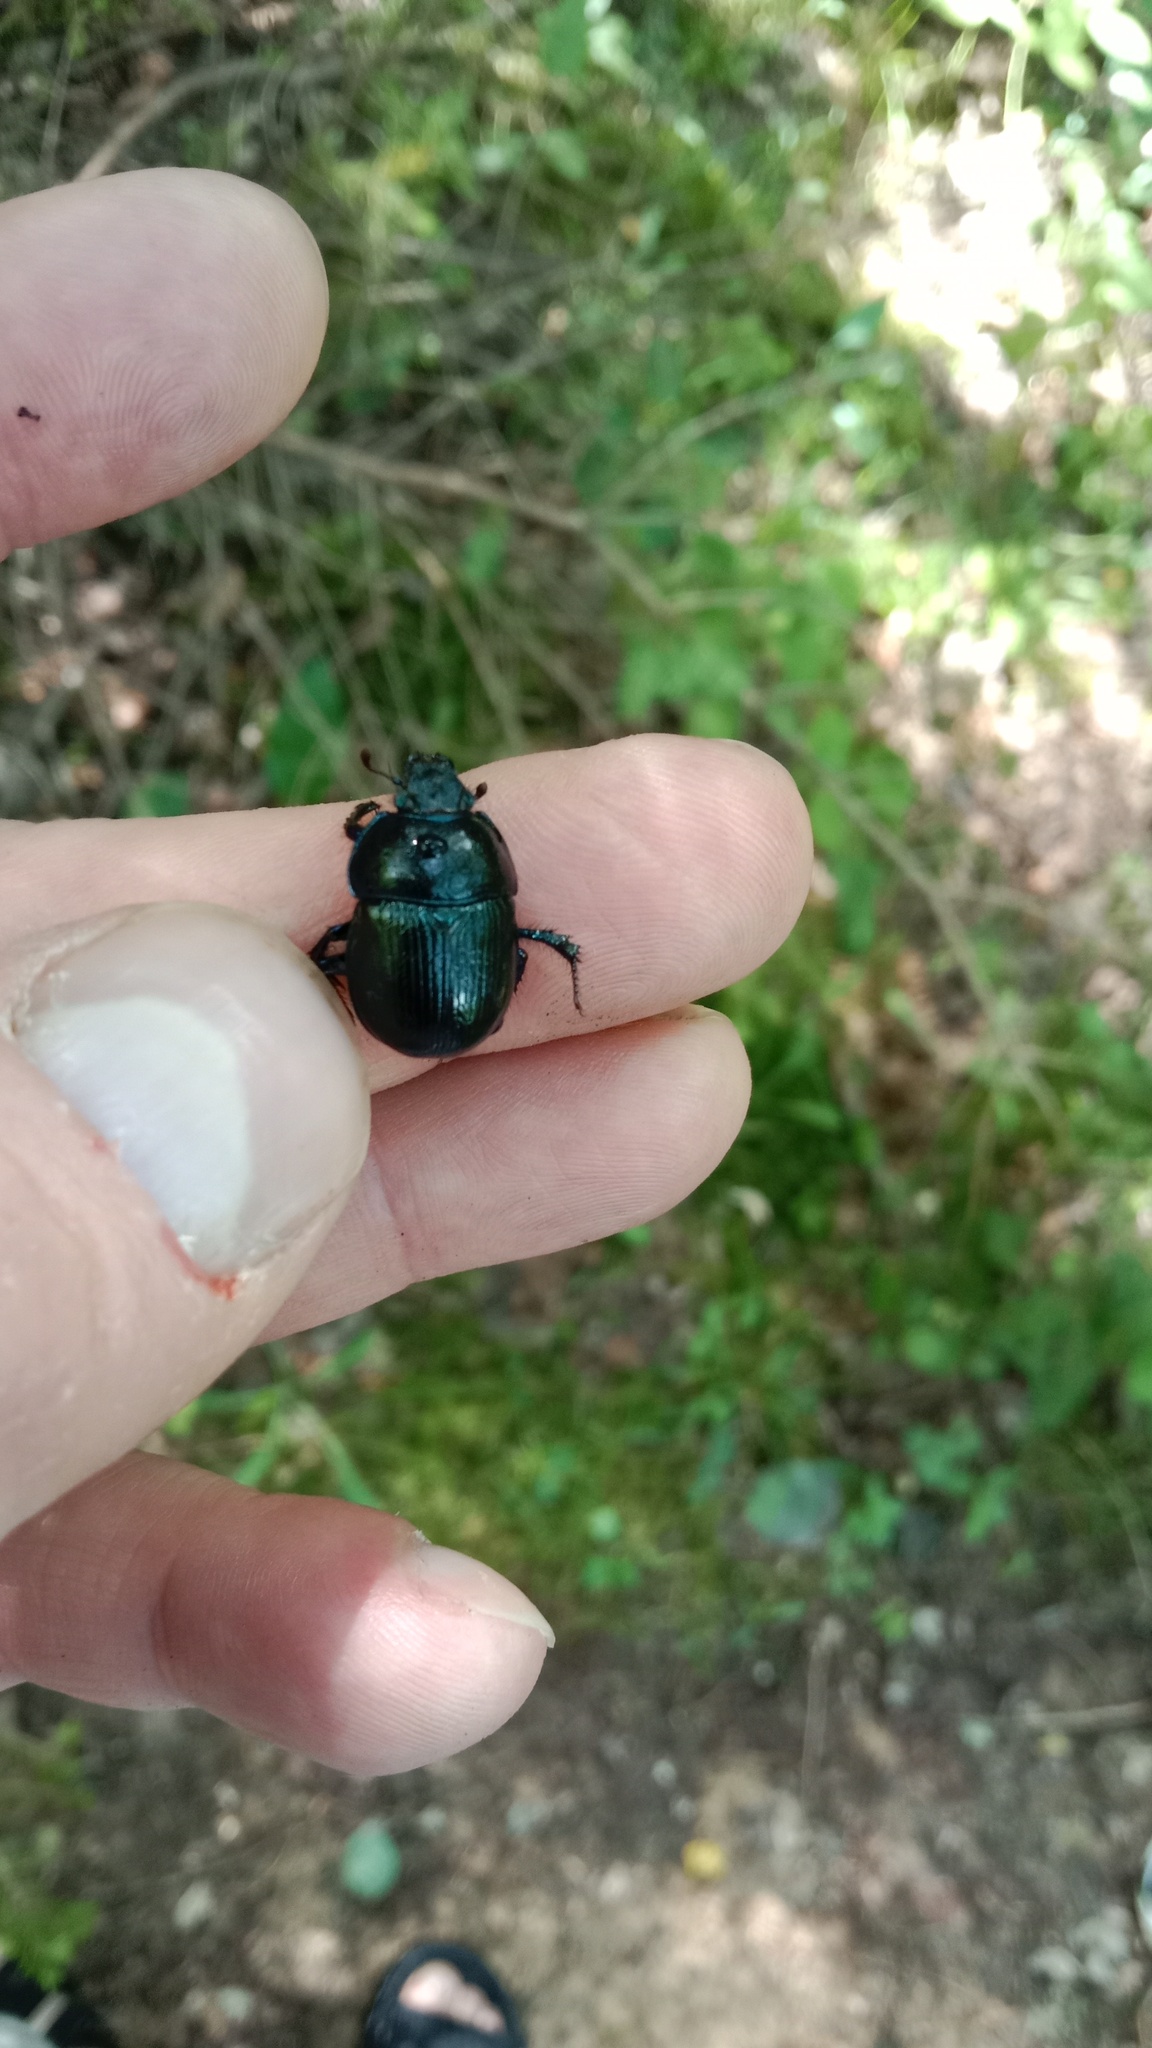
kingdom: Animalia
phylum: Arthropoda
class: Insecta
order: Coleoptera
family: Geotrupidae
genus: Anoplotrupes
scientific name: Anoplotrupes stercorosus
